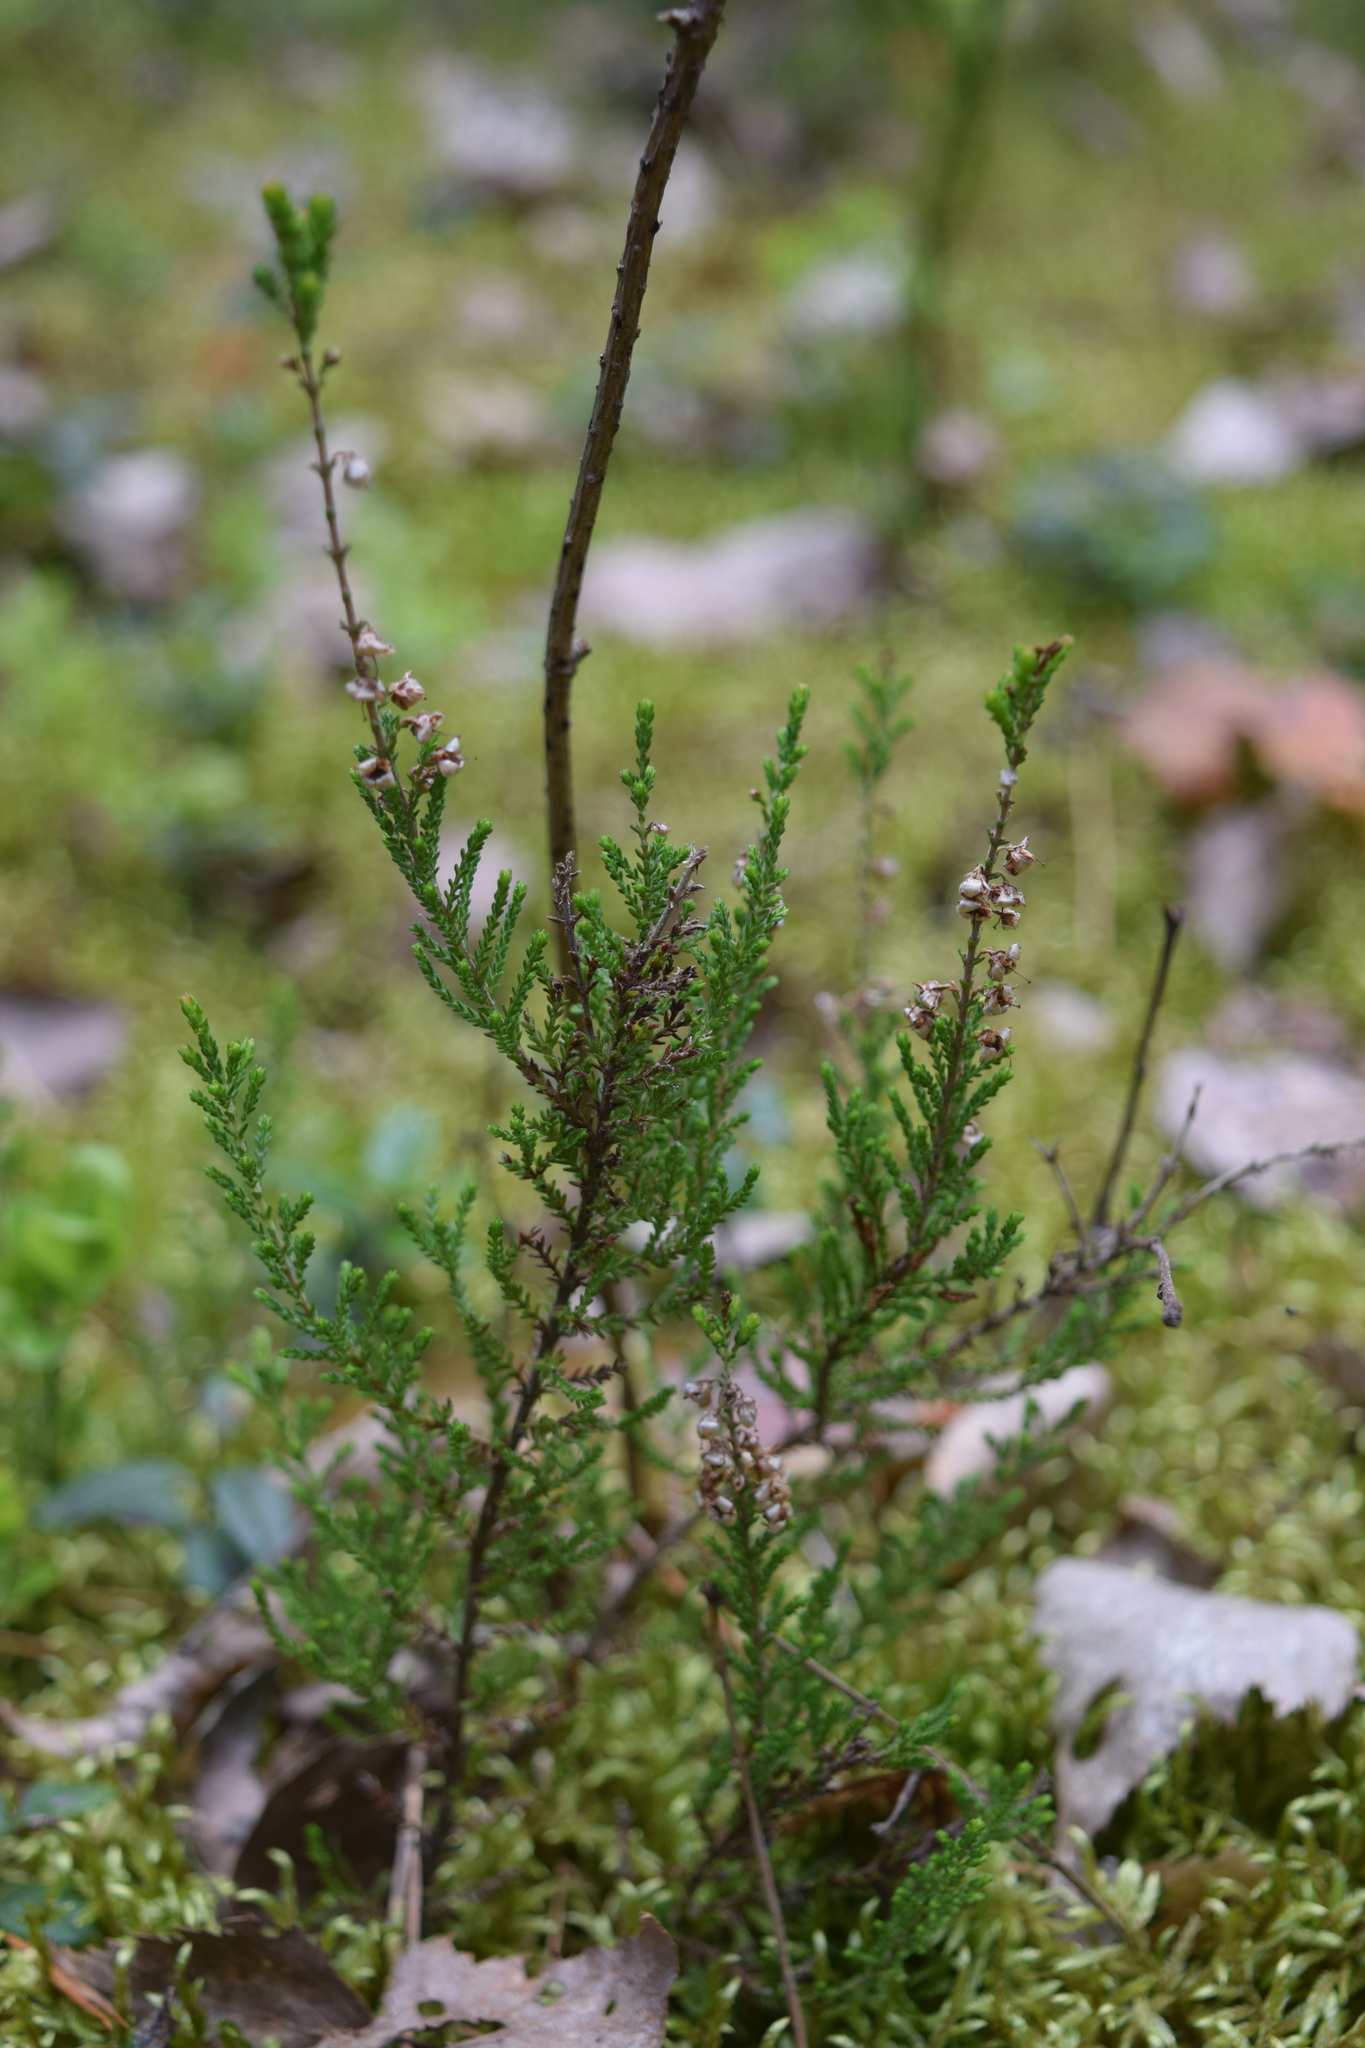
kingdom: Plantae
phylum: Tracheophyta
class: Magnoliopsida
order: Ericales
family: Ericaceae
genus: Calluna
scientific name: Calluna vulgaris
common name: Heather
